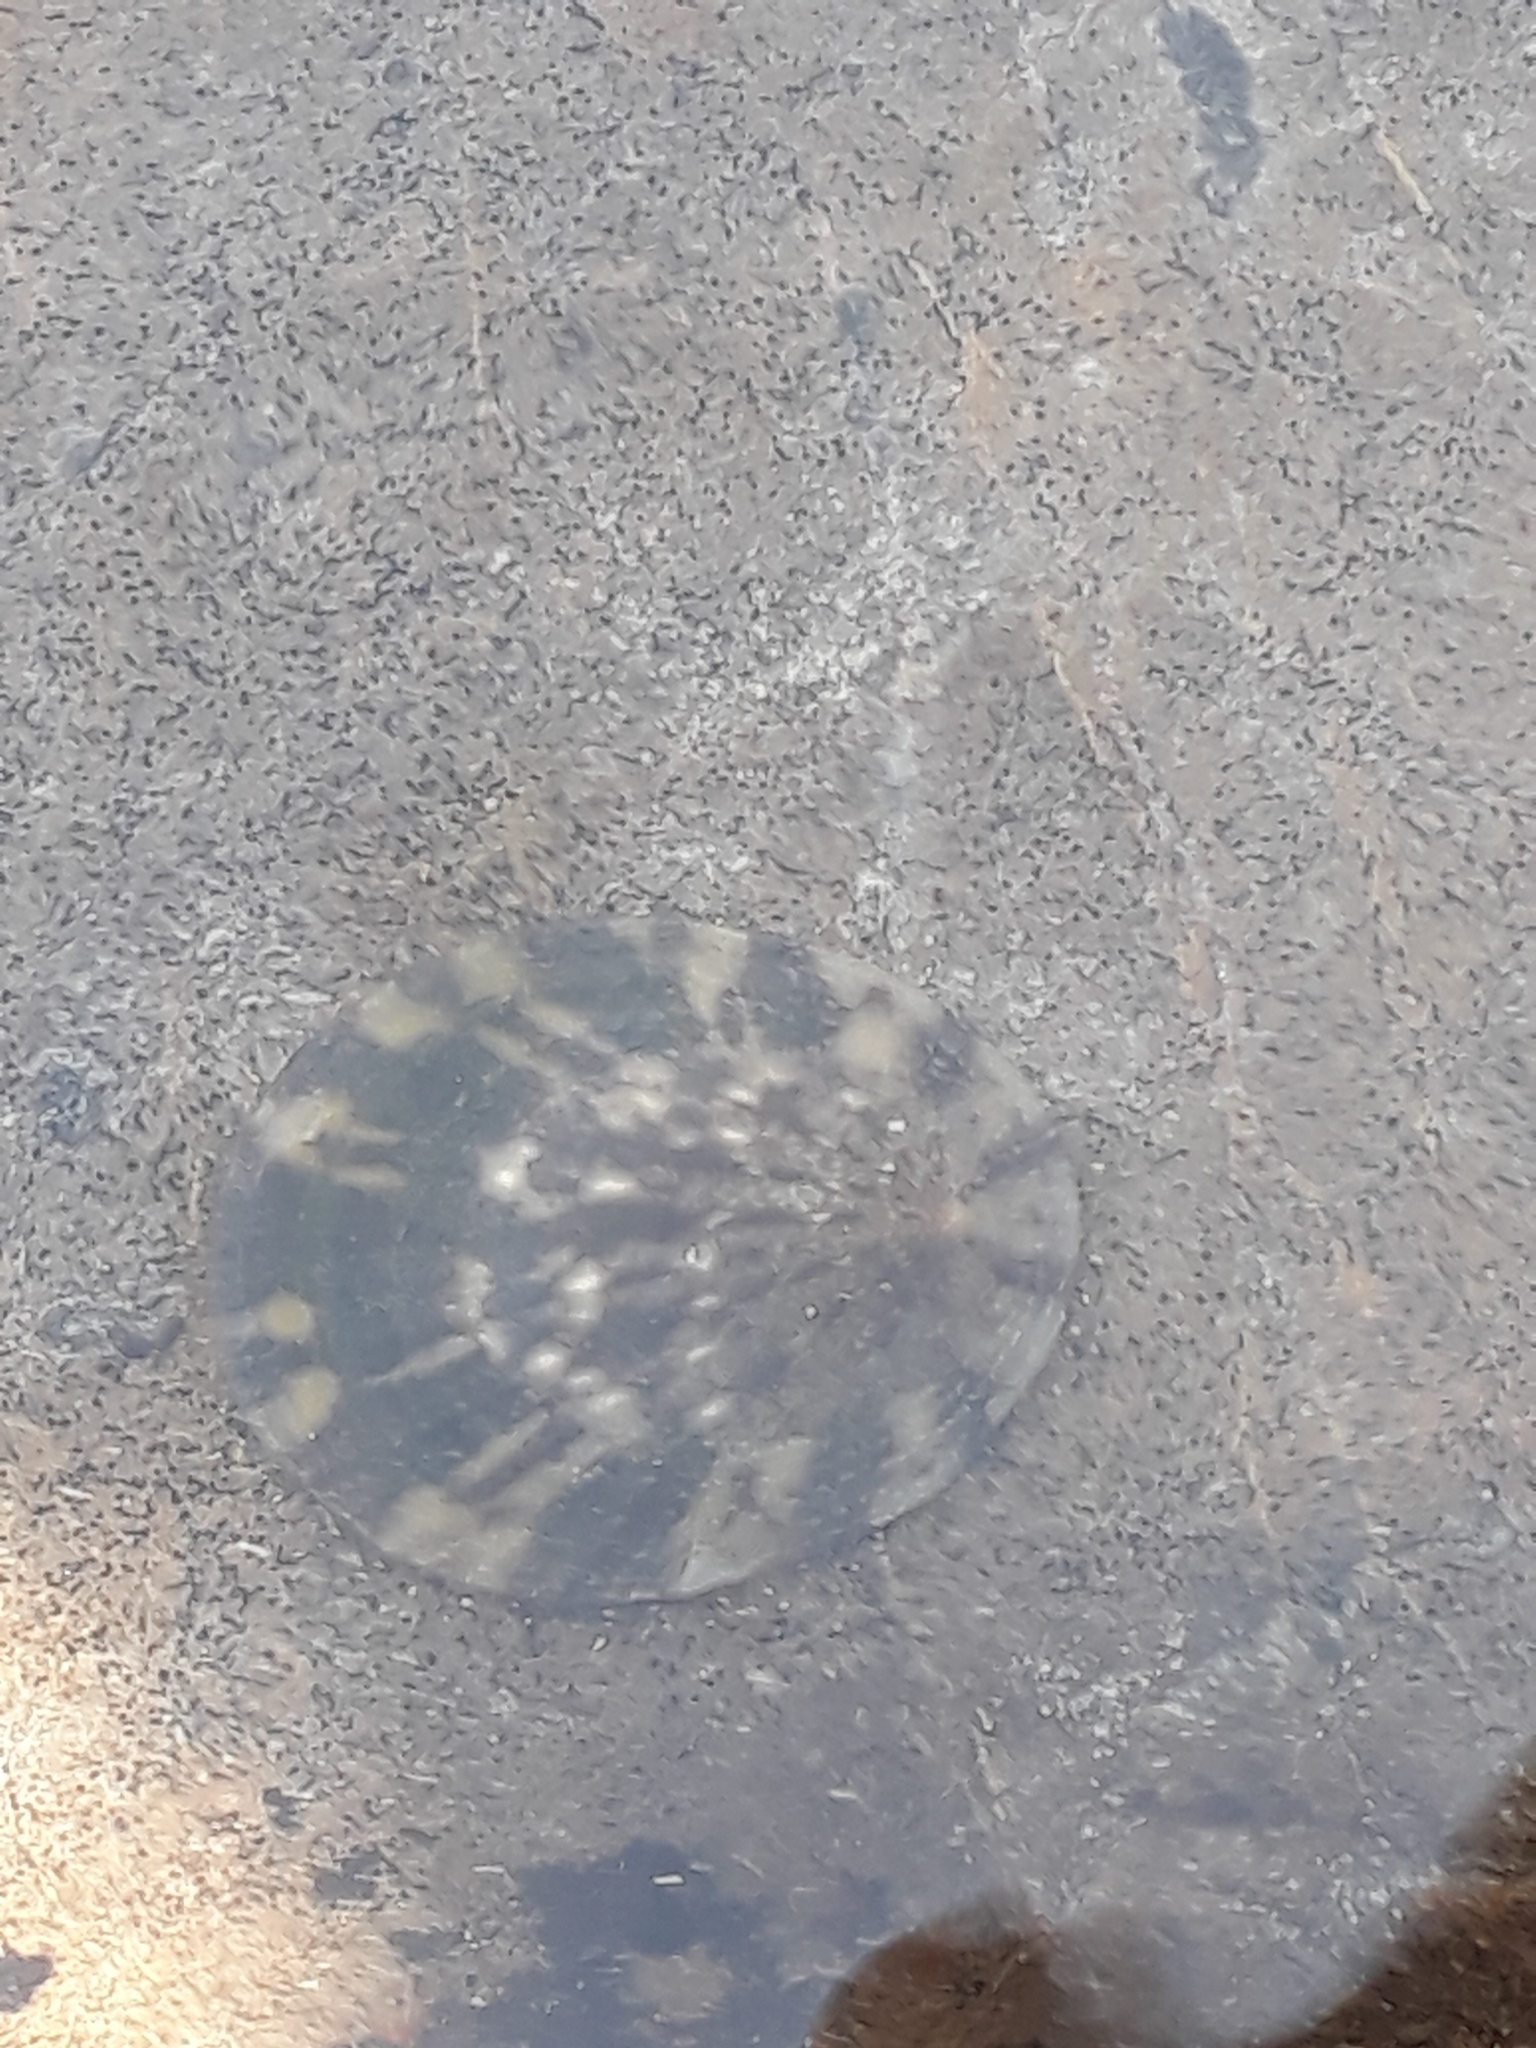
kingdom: Animalia
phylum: Mollusca
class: Gastropoda
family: Nacellidae
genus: Cellana
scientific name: Cellana radians
